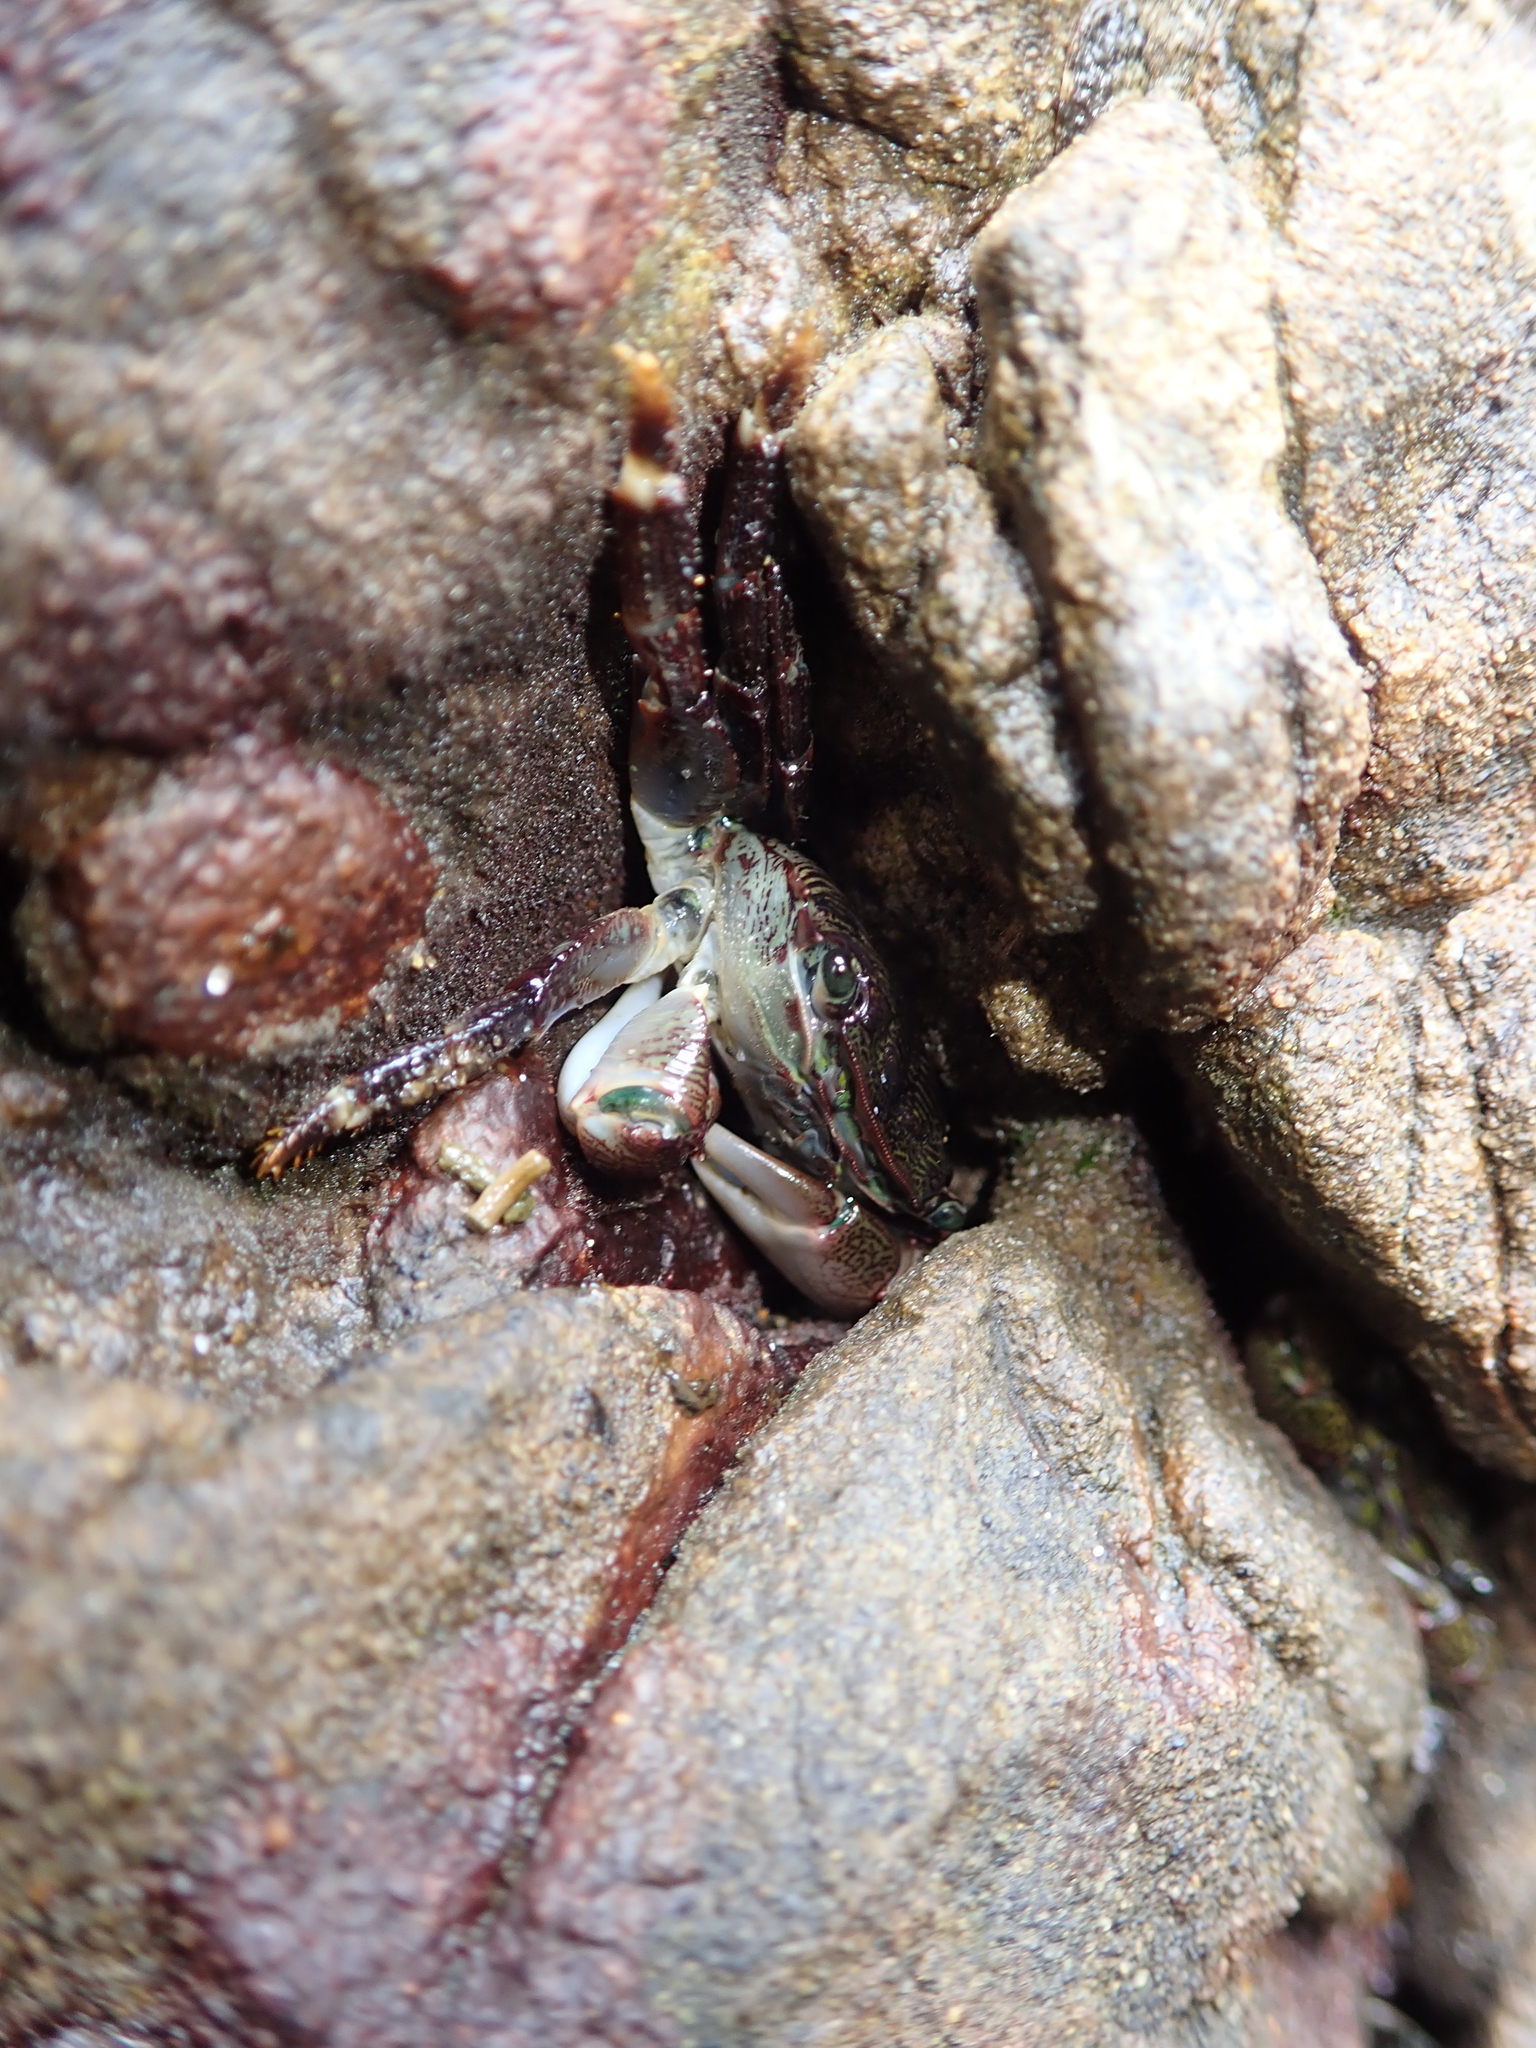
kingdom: Animalia
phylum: Arthropoda
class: Malacostraca
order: Decapoda
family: Grapsidae
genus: Pachygrapsus
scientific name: Pachygrapsus crassipes
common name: Striped shore crab
